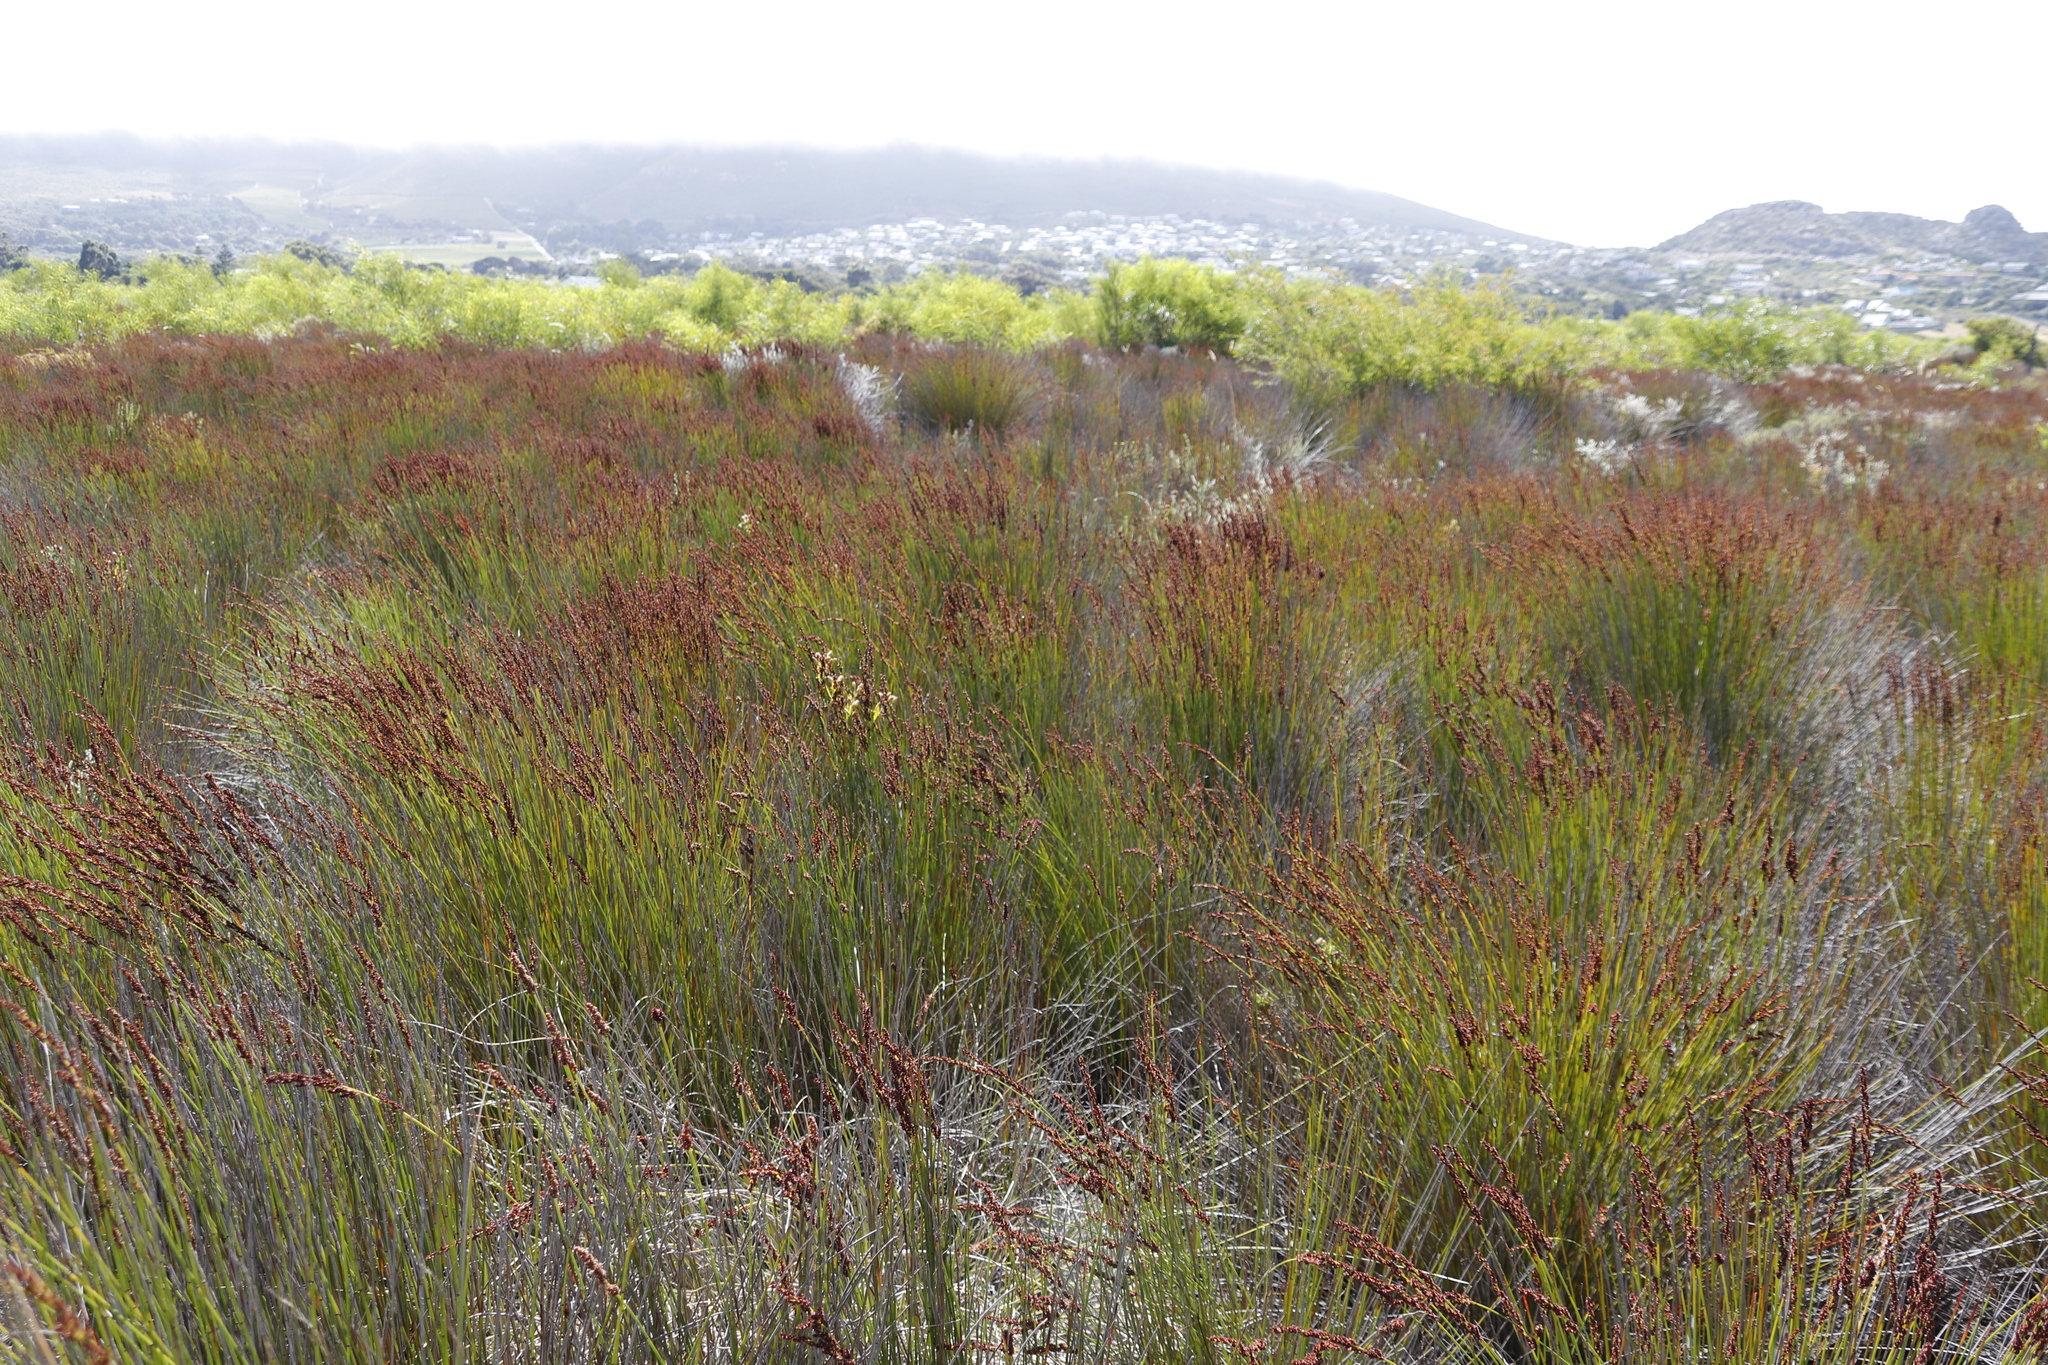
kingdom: Plantae
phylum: Tracheophyta
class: Liliopsida
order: Poales
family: Restionaceae
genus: Elegia
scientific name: Elegia tectorum
